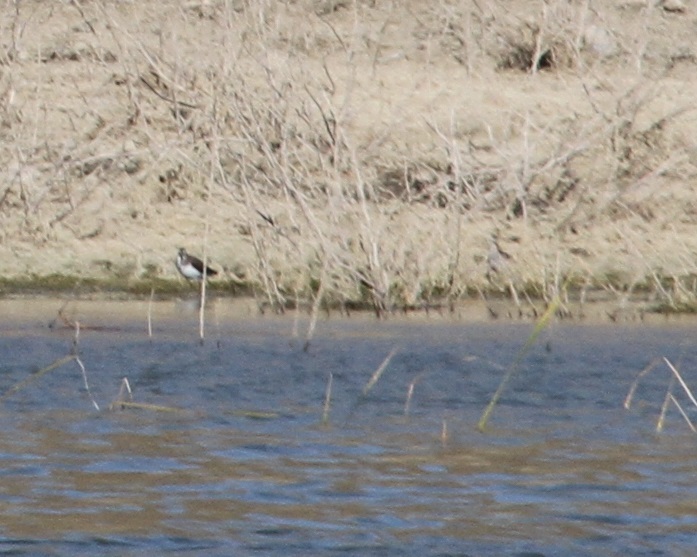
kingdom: Animalia
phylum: Chordata
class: Aves
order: Charadriiformes
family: Scolopacidae
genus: Actitis
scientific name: Actitis hypoleucos
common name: Common sandpiper
